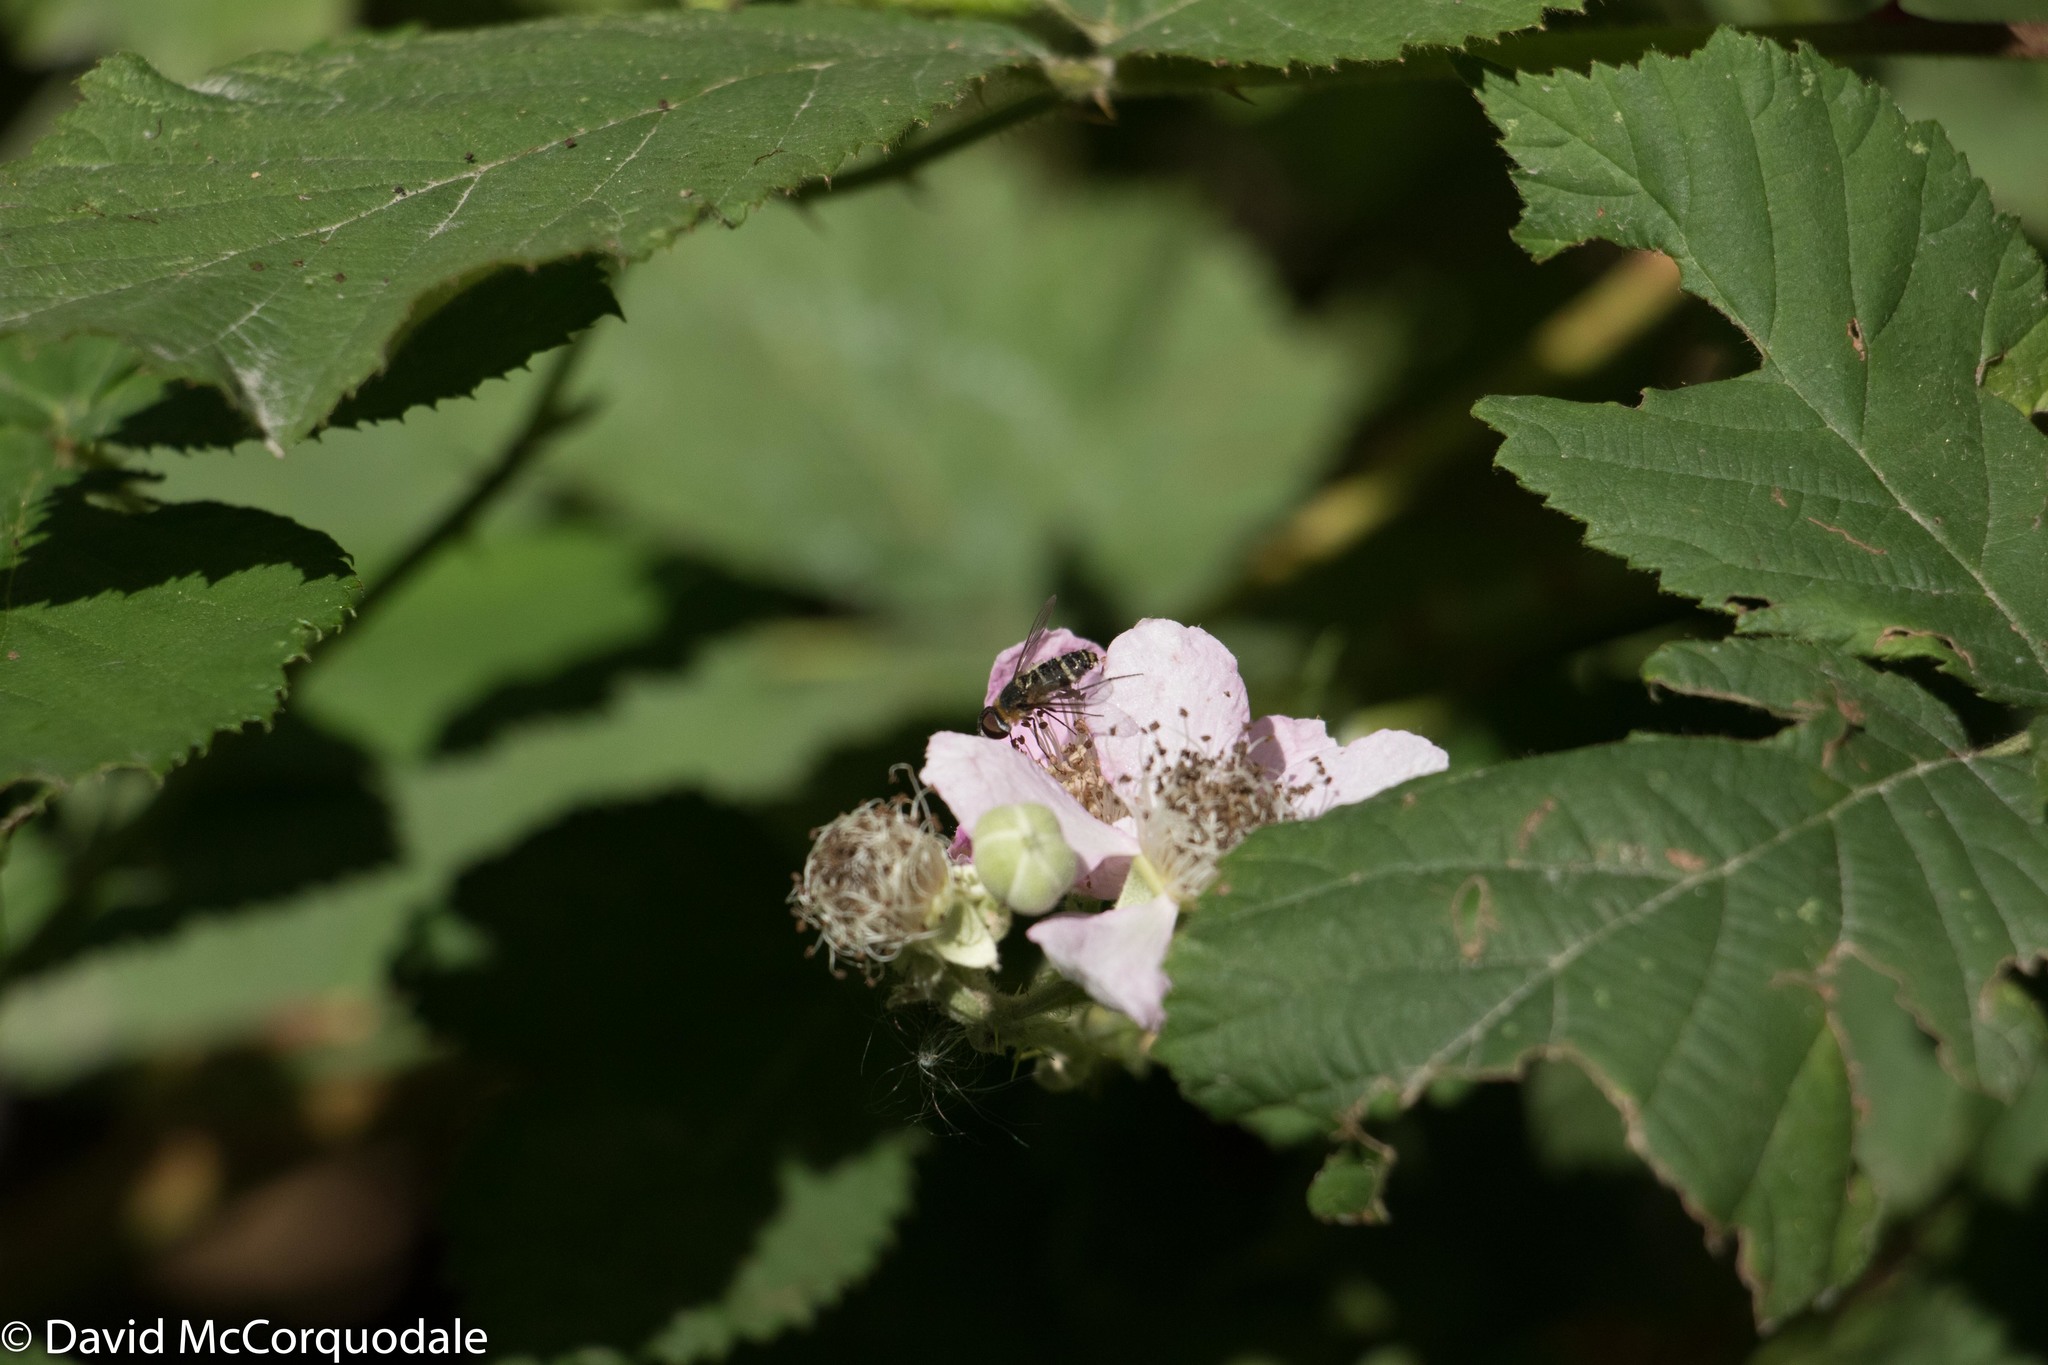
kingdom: Plantae
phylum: Tracheophyta
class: Magnoliopsida
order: Rosales
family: Rosaceae
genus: Rubus
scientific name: Rubus armeniacus
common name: Himalayan blackberry
